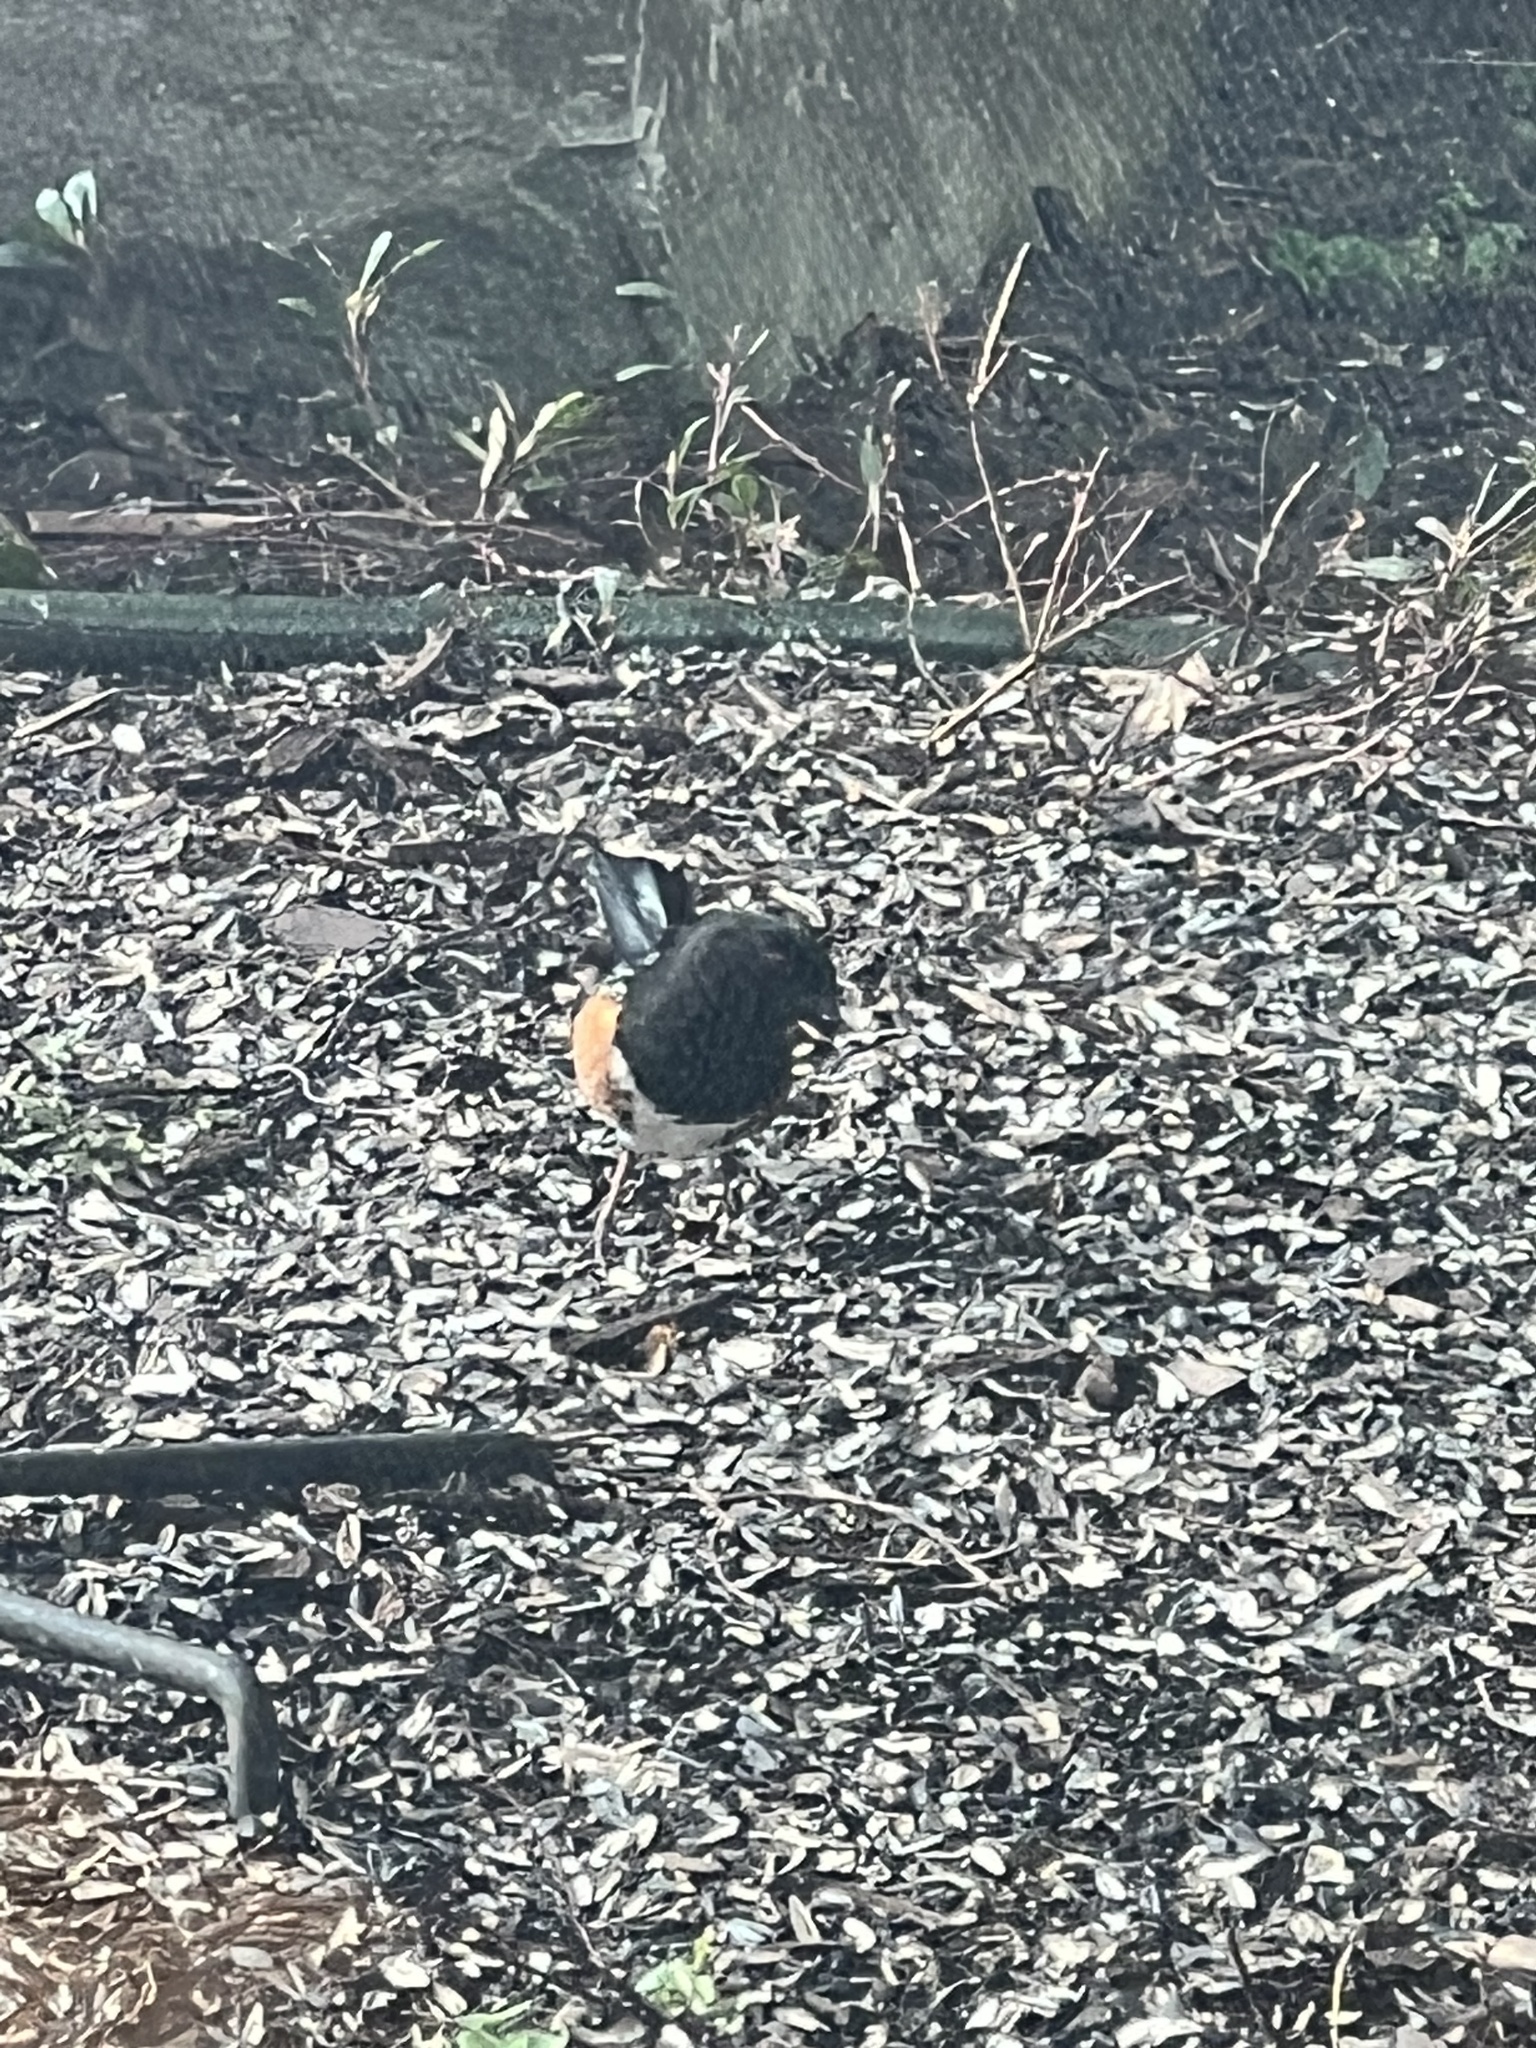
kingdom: Animalia
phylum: Chordata
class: Aves
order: Passeriformes
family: Passerellidae
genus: Pipilo
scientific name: Pipilo maculatus
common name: Spotted towhee
